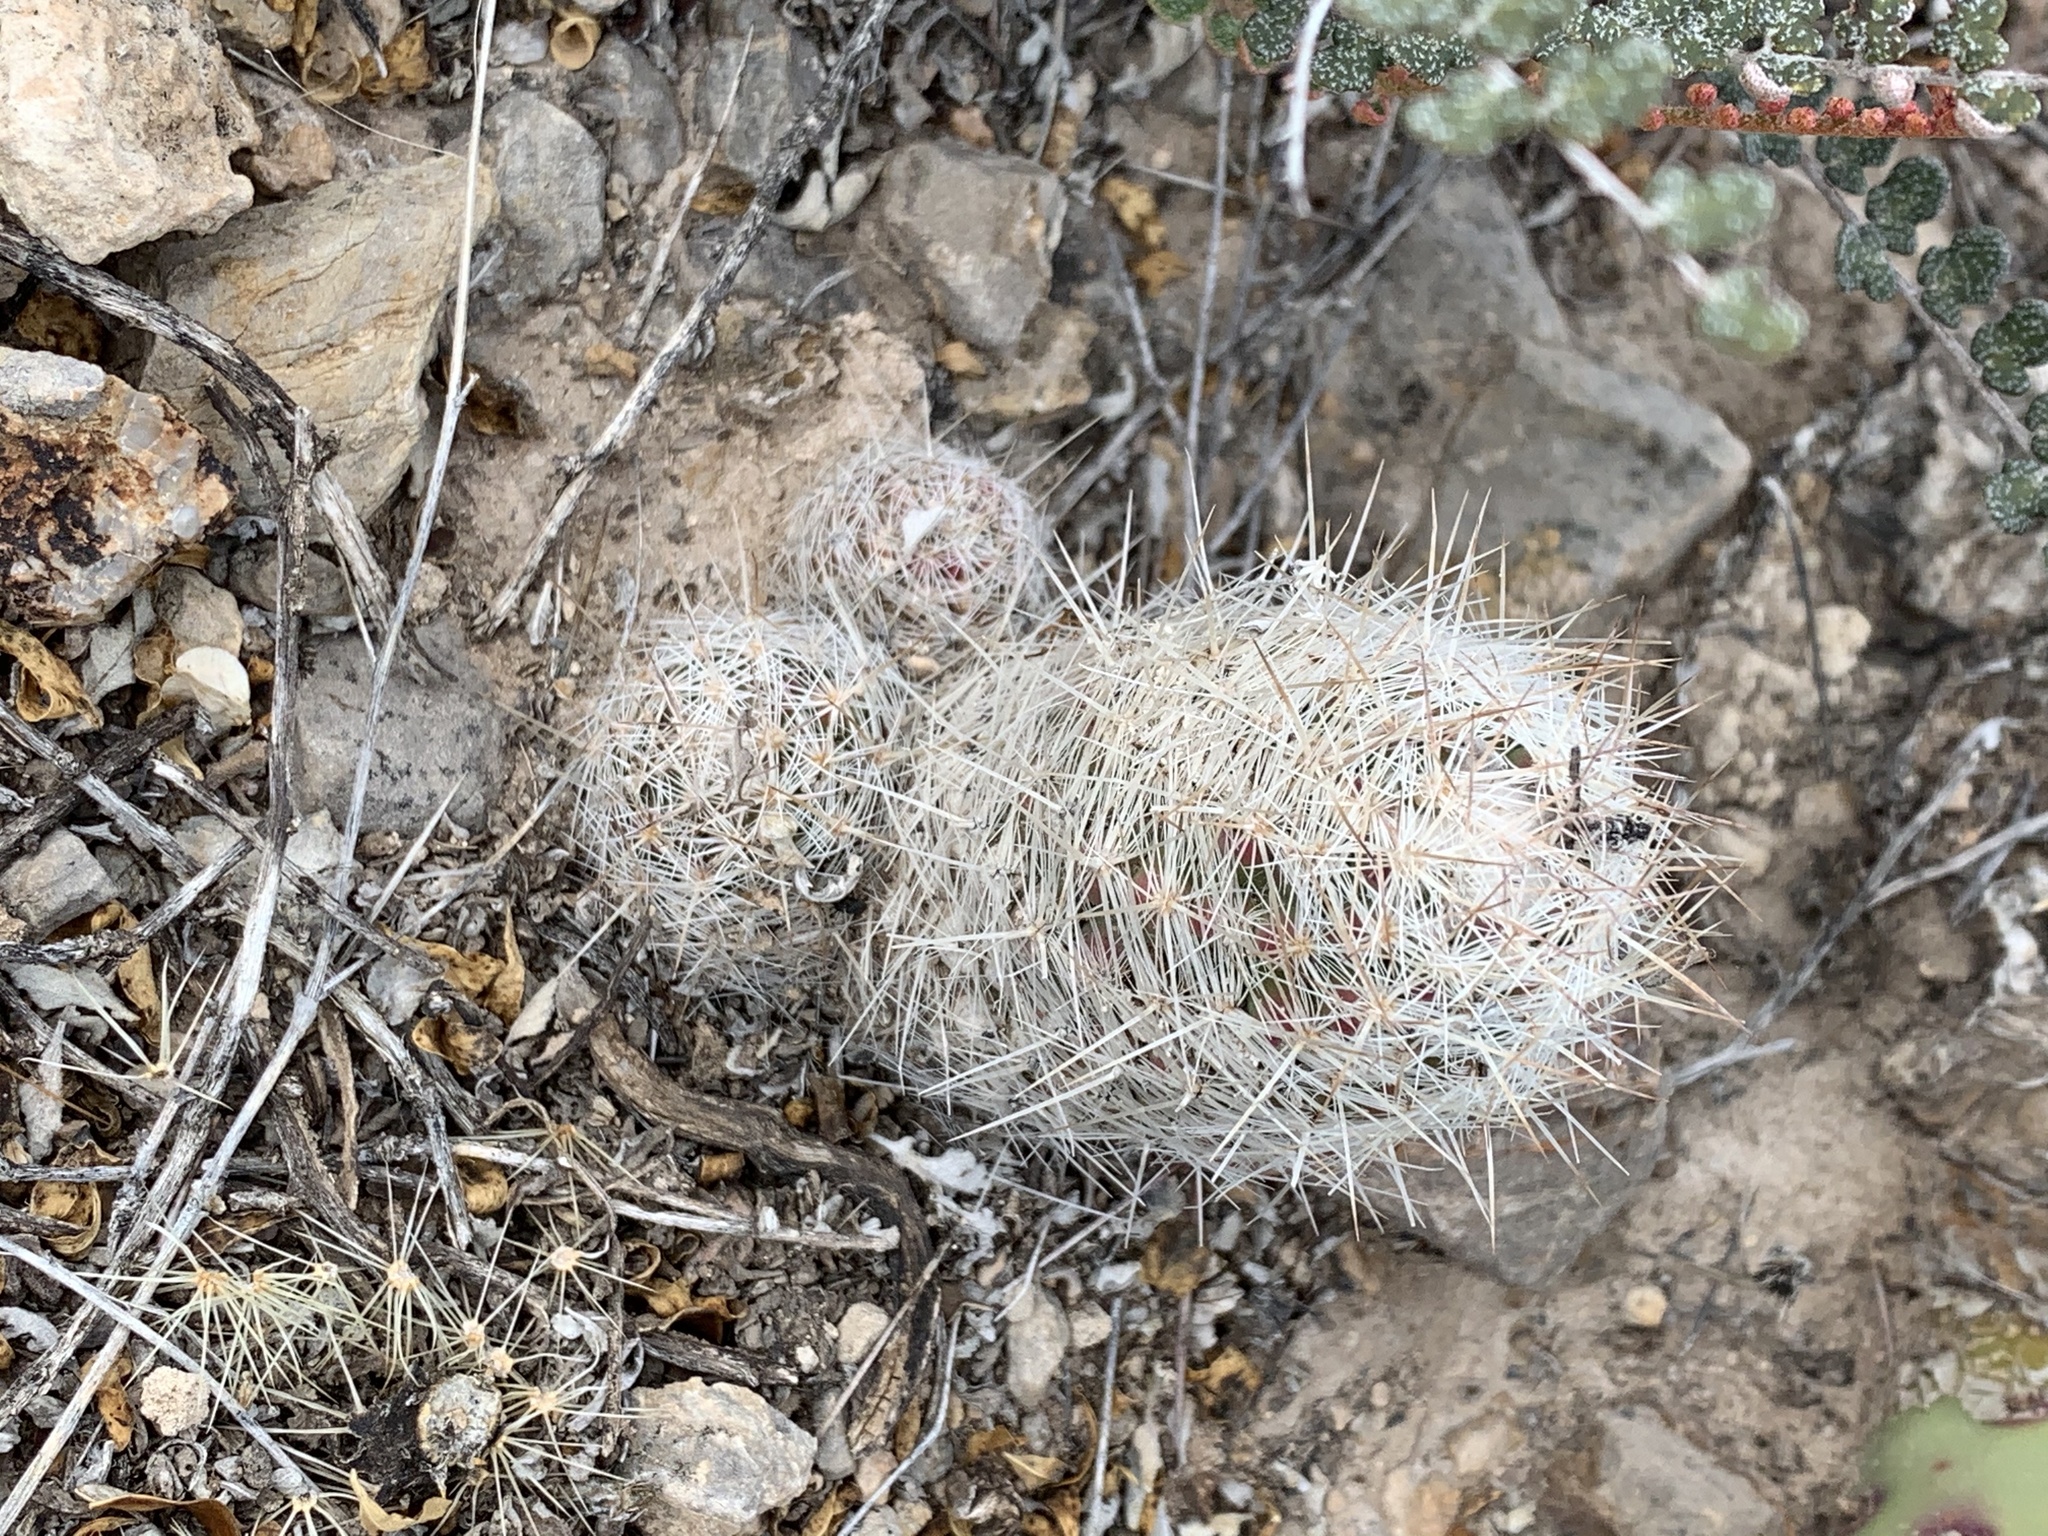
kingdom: Plantae
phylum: Tracheophyta
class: Magnoliopsida
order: Caryophyllales
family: Cactaceae
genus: Pelecyphora
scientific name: Pelecyphora tuberculosa
